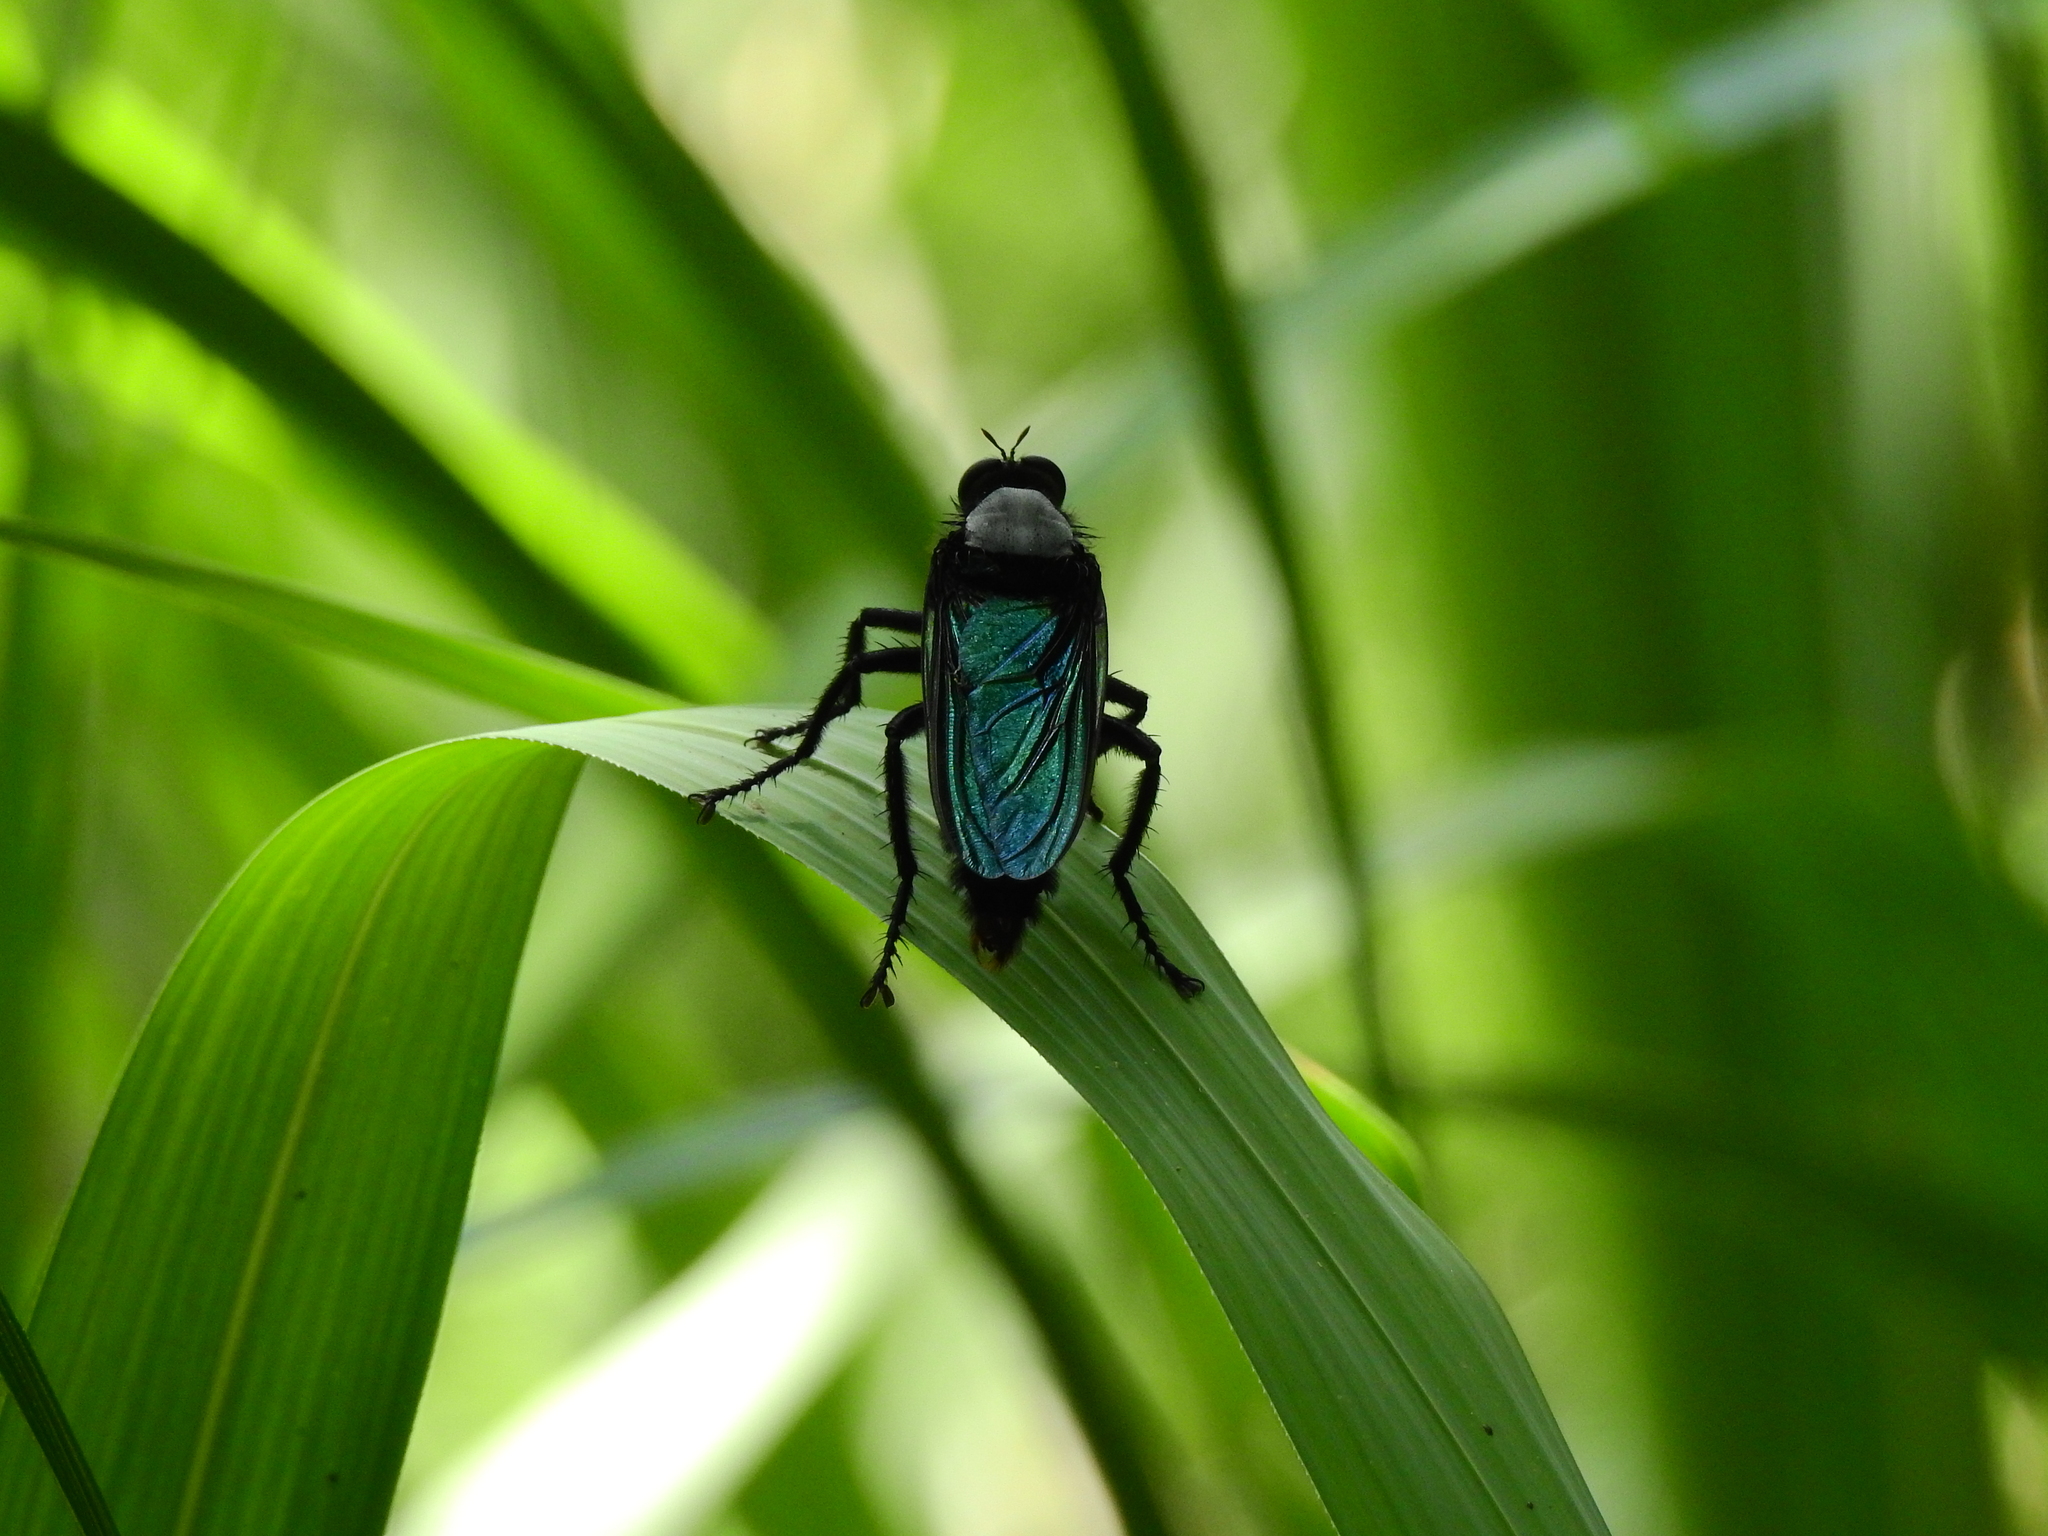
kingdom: Animalia
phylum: Arthropoda
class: Insecta
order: Diptera
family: Asilidae
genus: Microstylum
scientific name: Microstylum oberthurii
